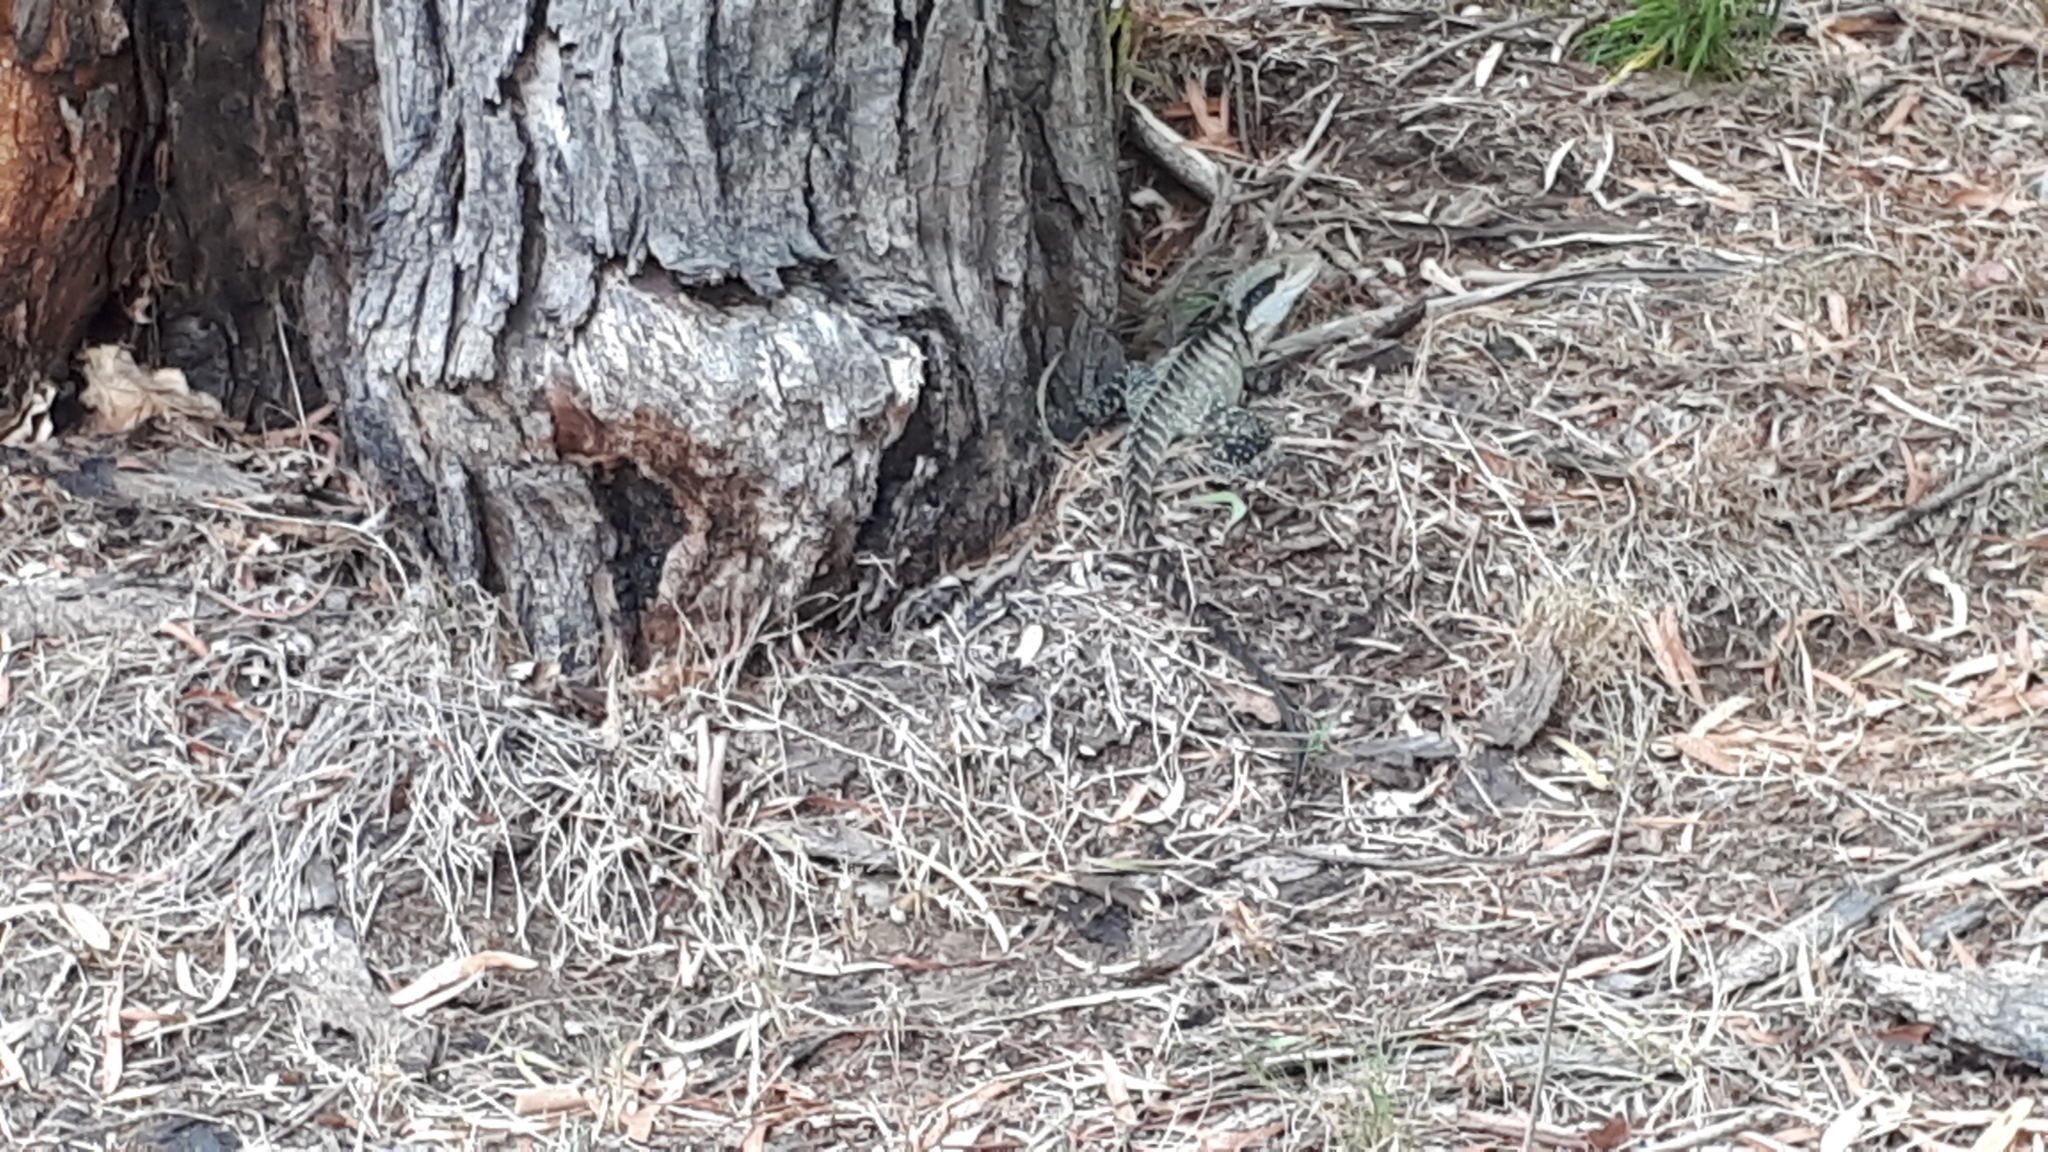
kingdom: Animalia
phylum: Chordata
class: Squamata
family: Agamidae
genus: Intellagama
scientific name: Intellagama lesueurii
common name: Eastern water dragon
